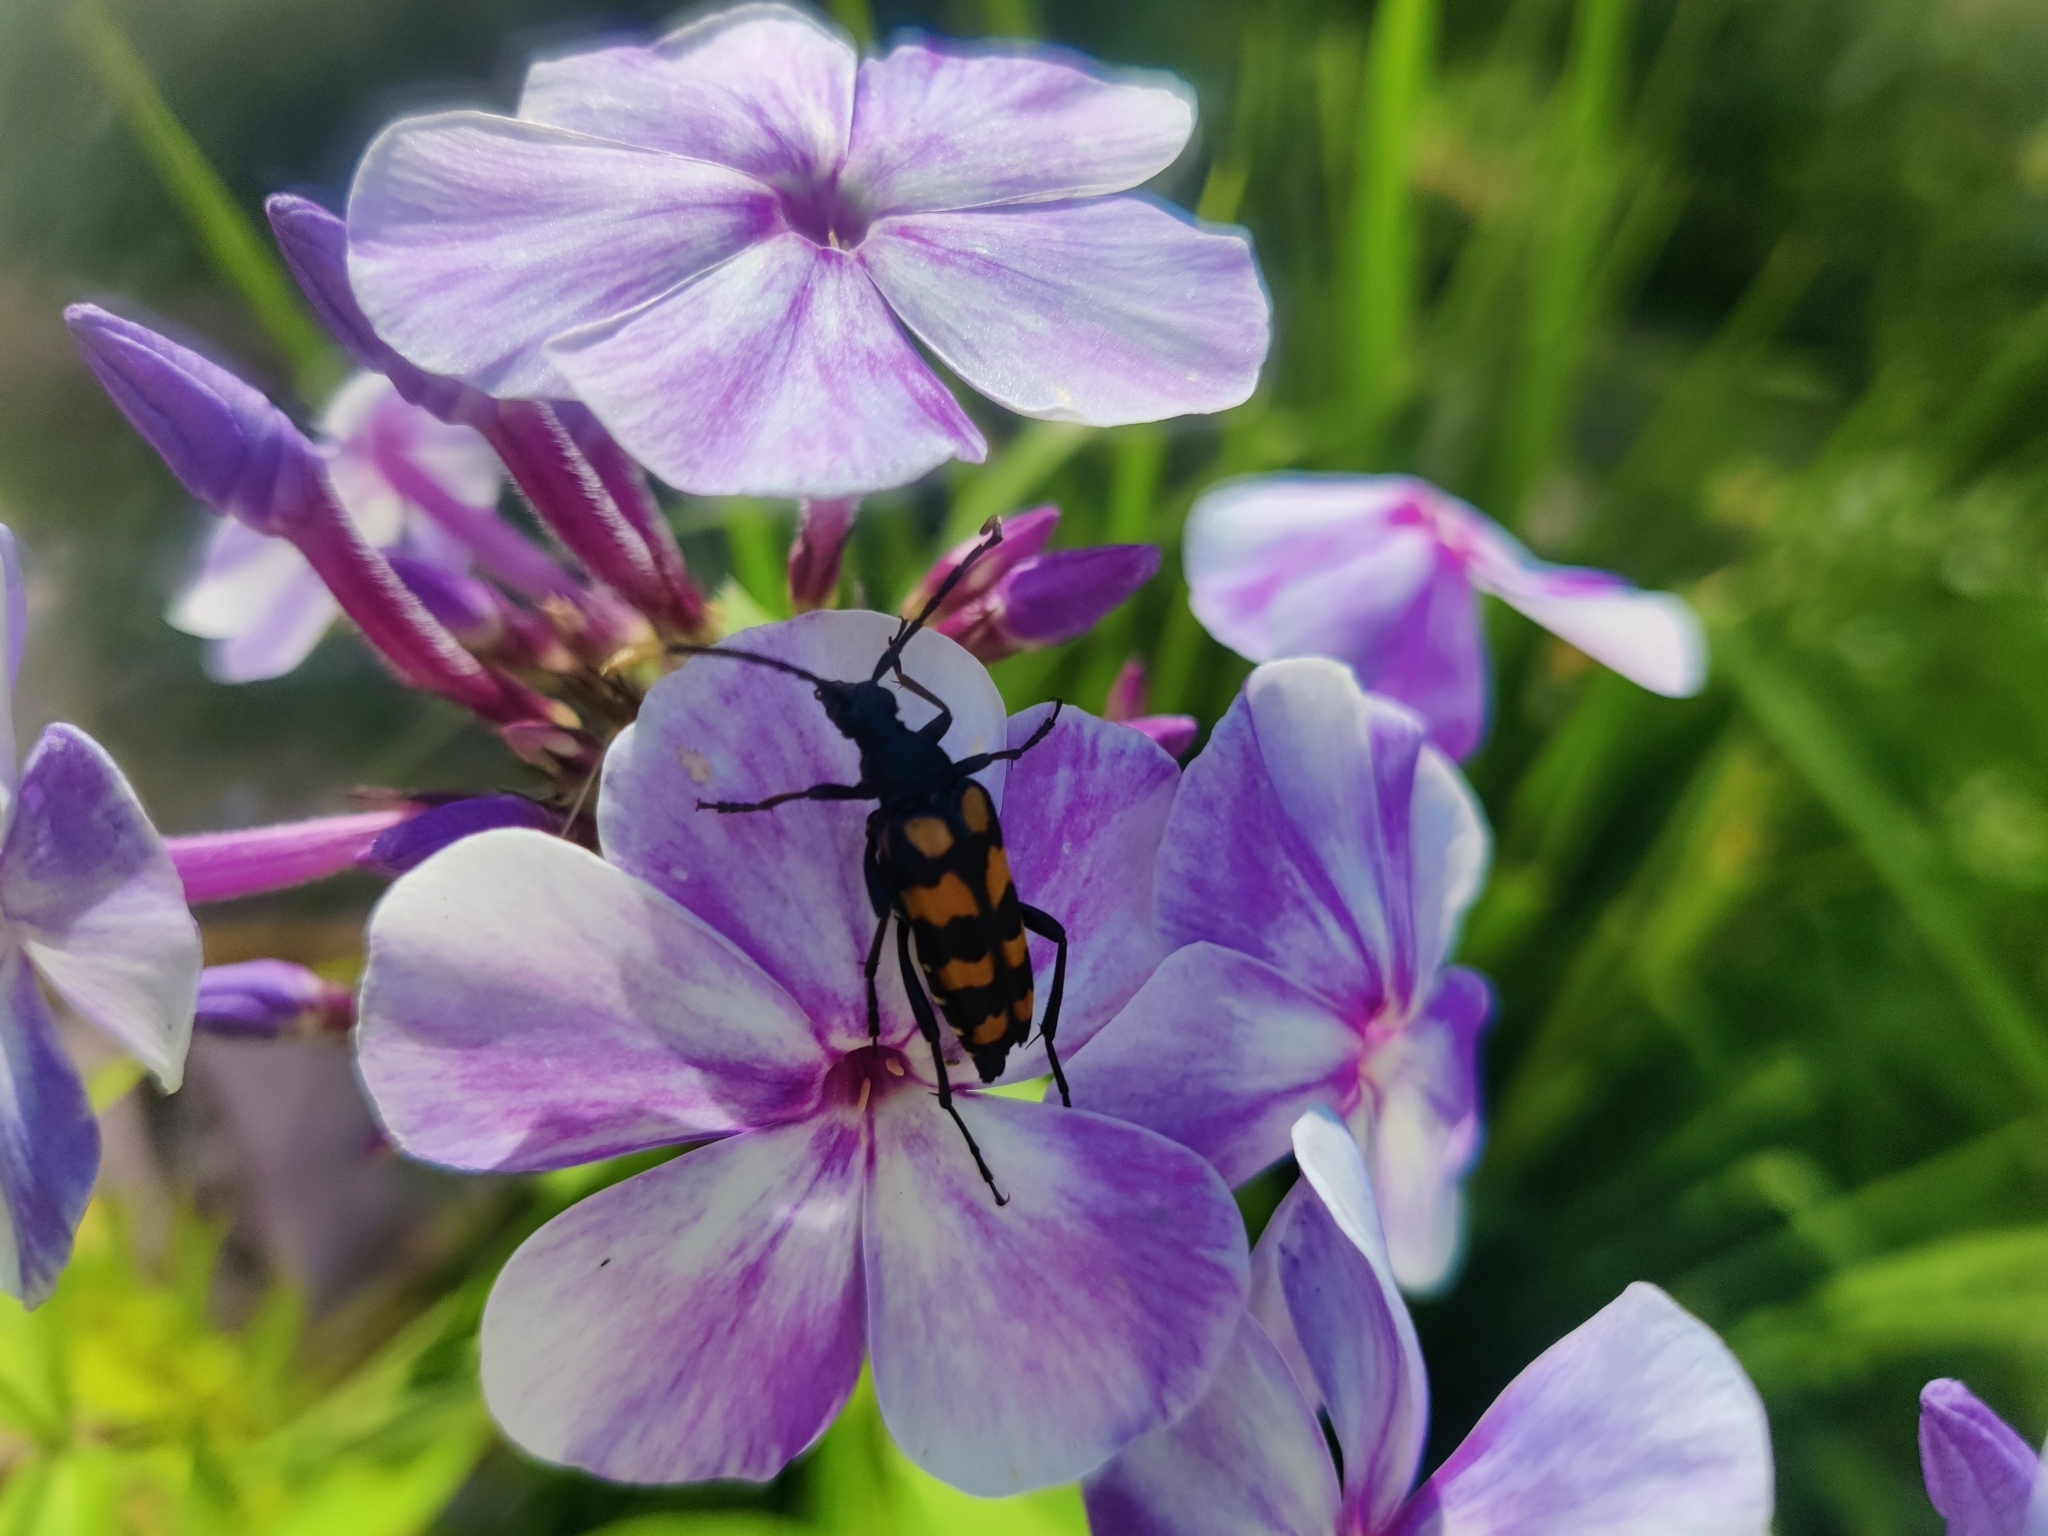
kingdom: Animalia
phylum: Arthropoda
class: Insecta
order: Coleoptera
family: Cerambycidae
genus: Leptura
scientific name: Leptura quadrifasciata
